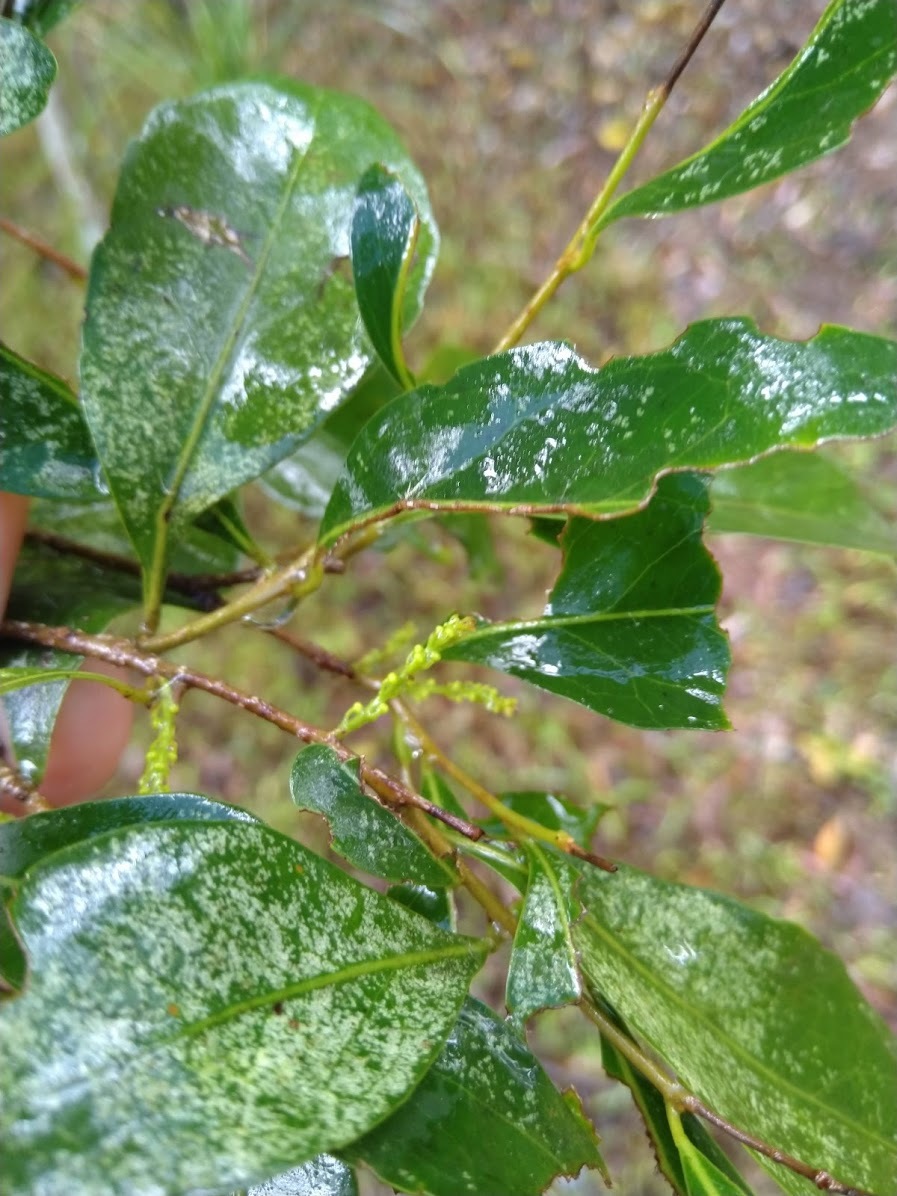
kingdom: Plantae
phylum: Tracheophyta
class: Magnoliopsida
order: Oxalidales
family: Elaeocarpaceae
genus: Elaeocarpus
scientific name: Elaeocarpus obovatus
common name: Freckled oliveberry
